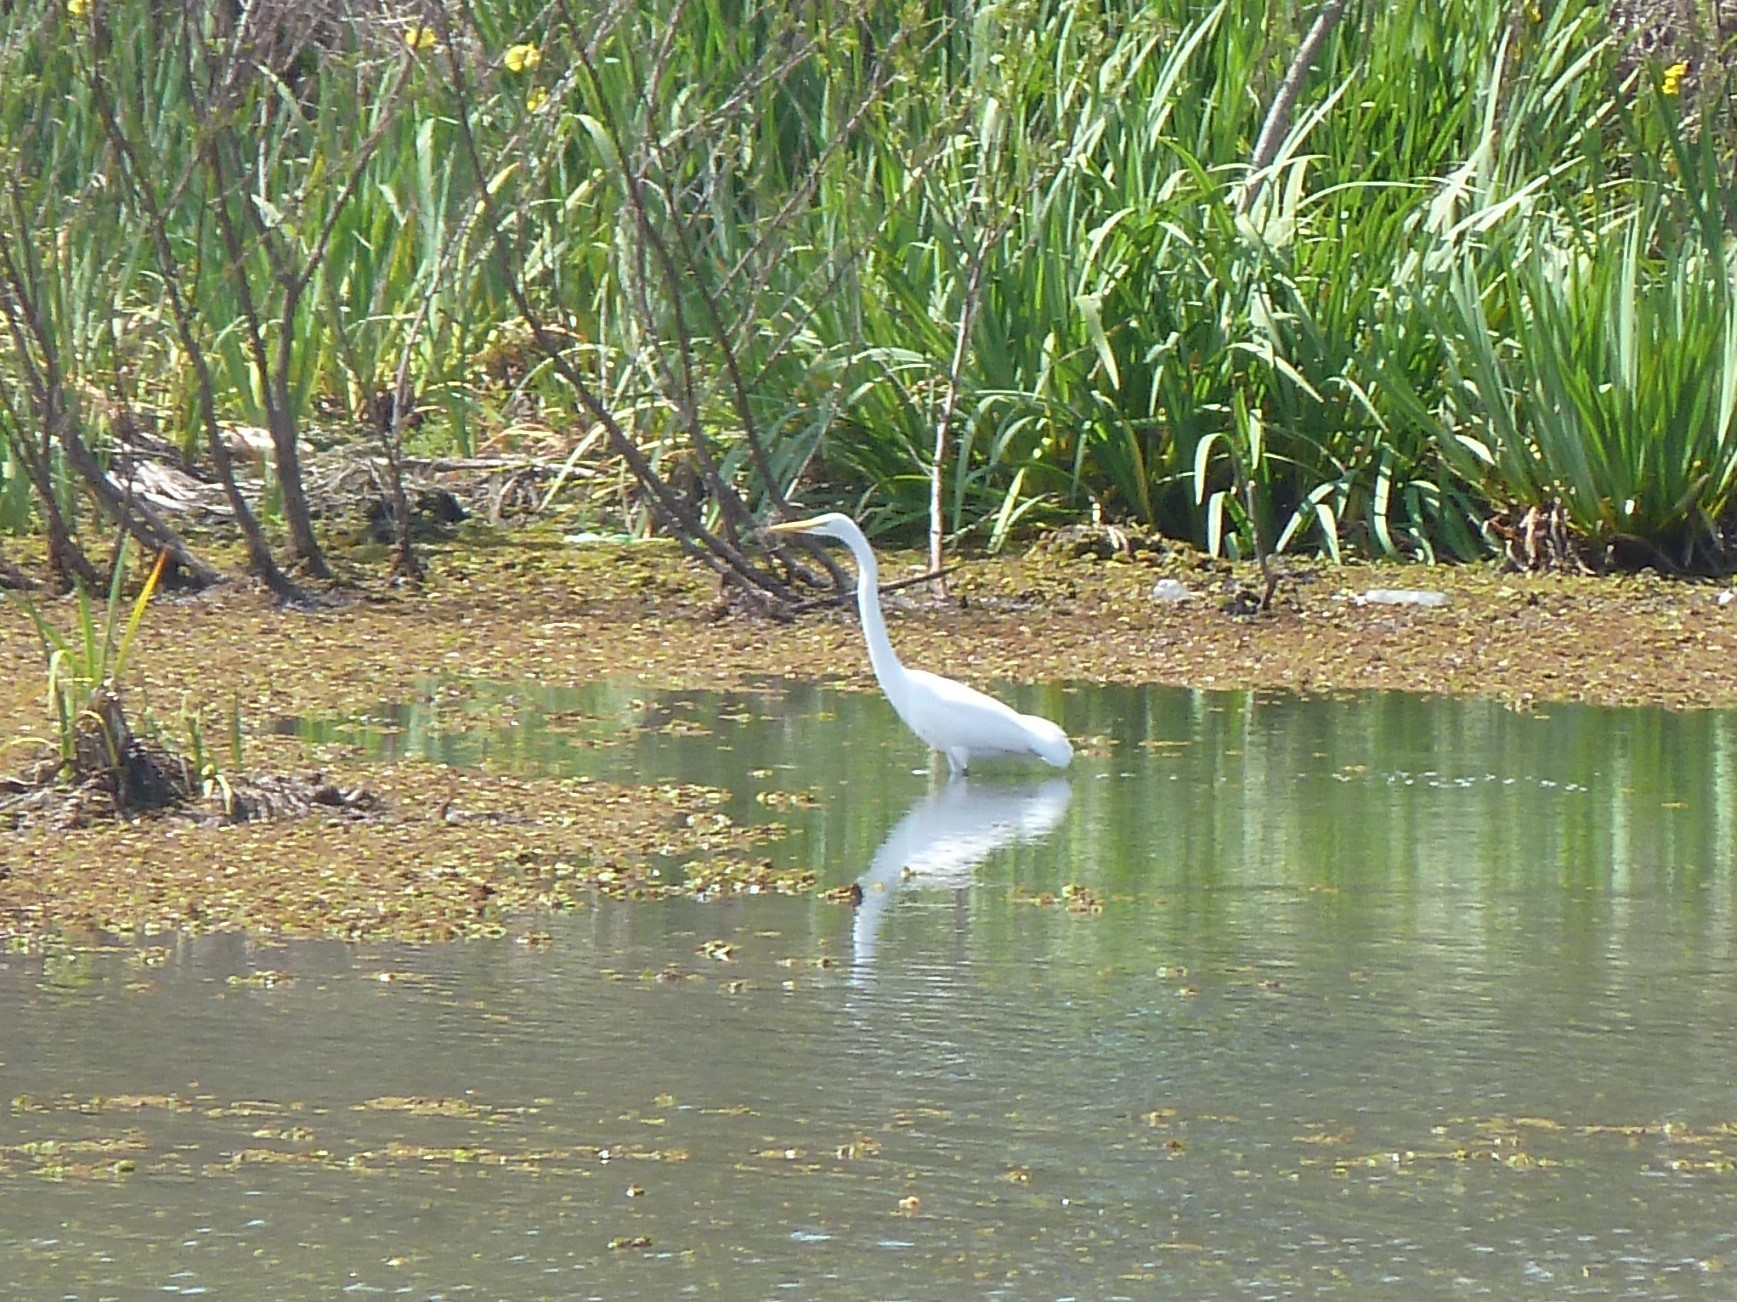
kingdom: Animalia
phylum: Chordata
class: Aves
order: Pelecaniformes
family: Ardeidae
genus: Ardea
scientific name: Ardea alba
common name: Great egret
